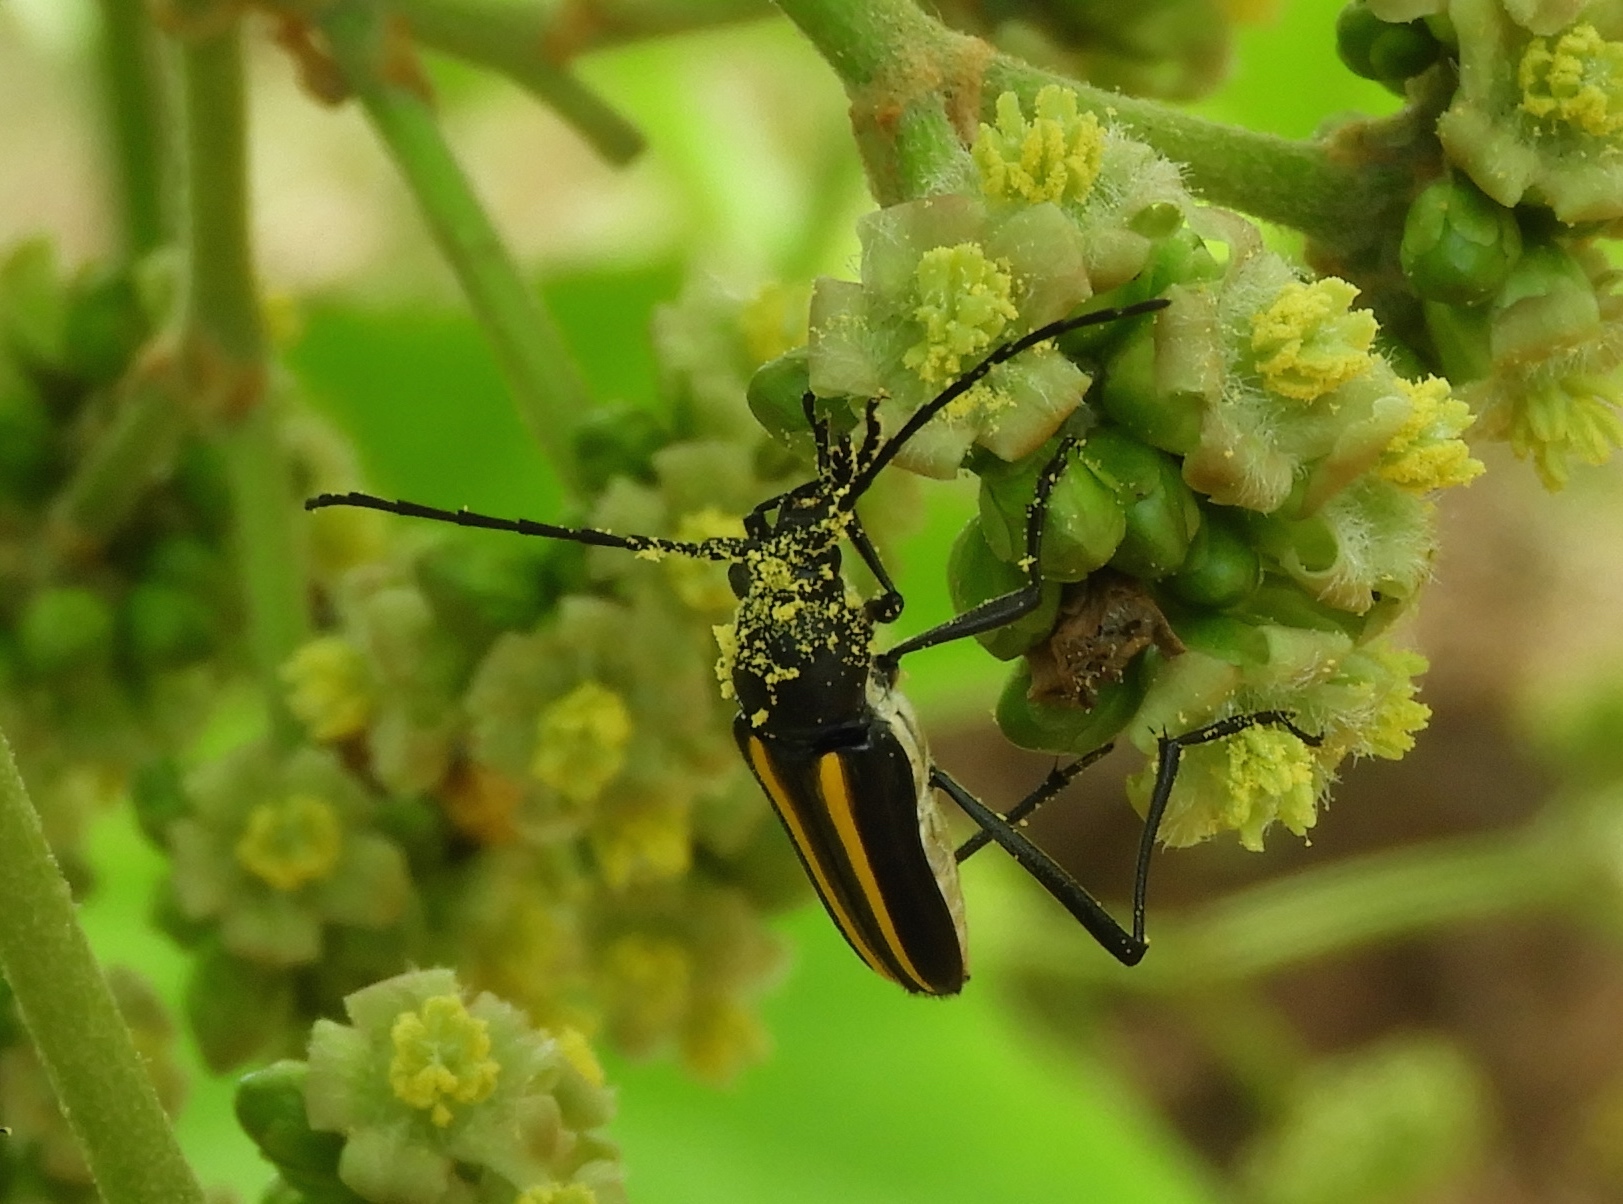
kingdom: Animalia
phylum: Arthropoda
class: Insecta
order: Coleoptera
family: Cerambycidae
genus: Lophalia
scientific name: Lophalia
